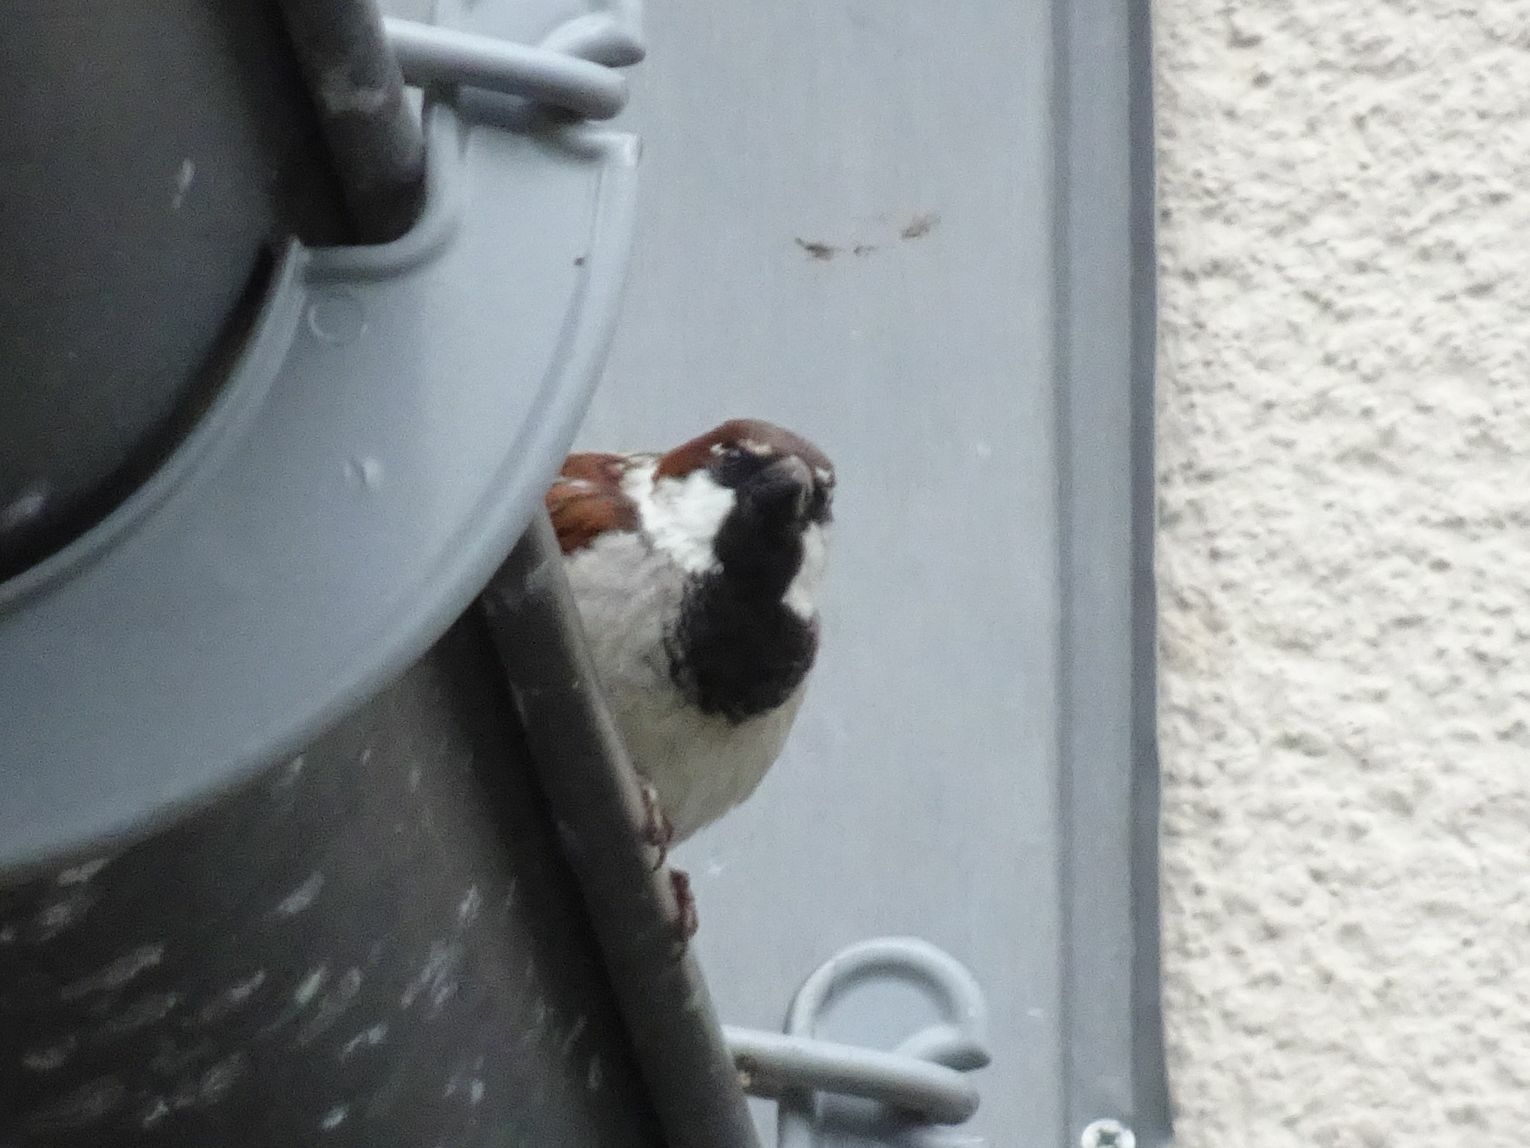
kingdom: Animalia
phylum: Chordata
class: Aves
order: Passeriformes
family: Passeridae
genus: Passer
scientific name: Passer domesticus
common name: House sparrow
